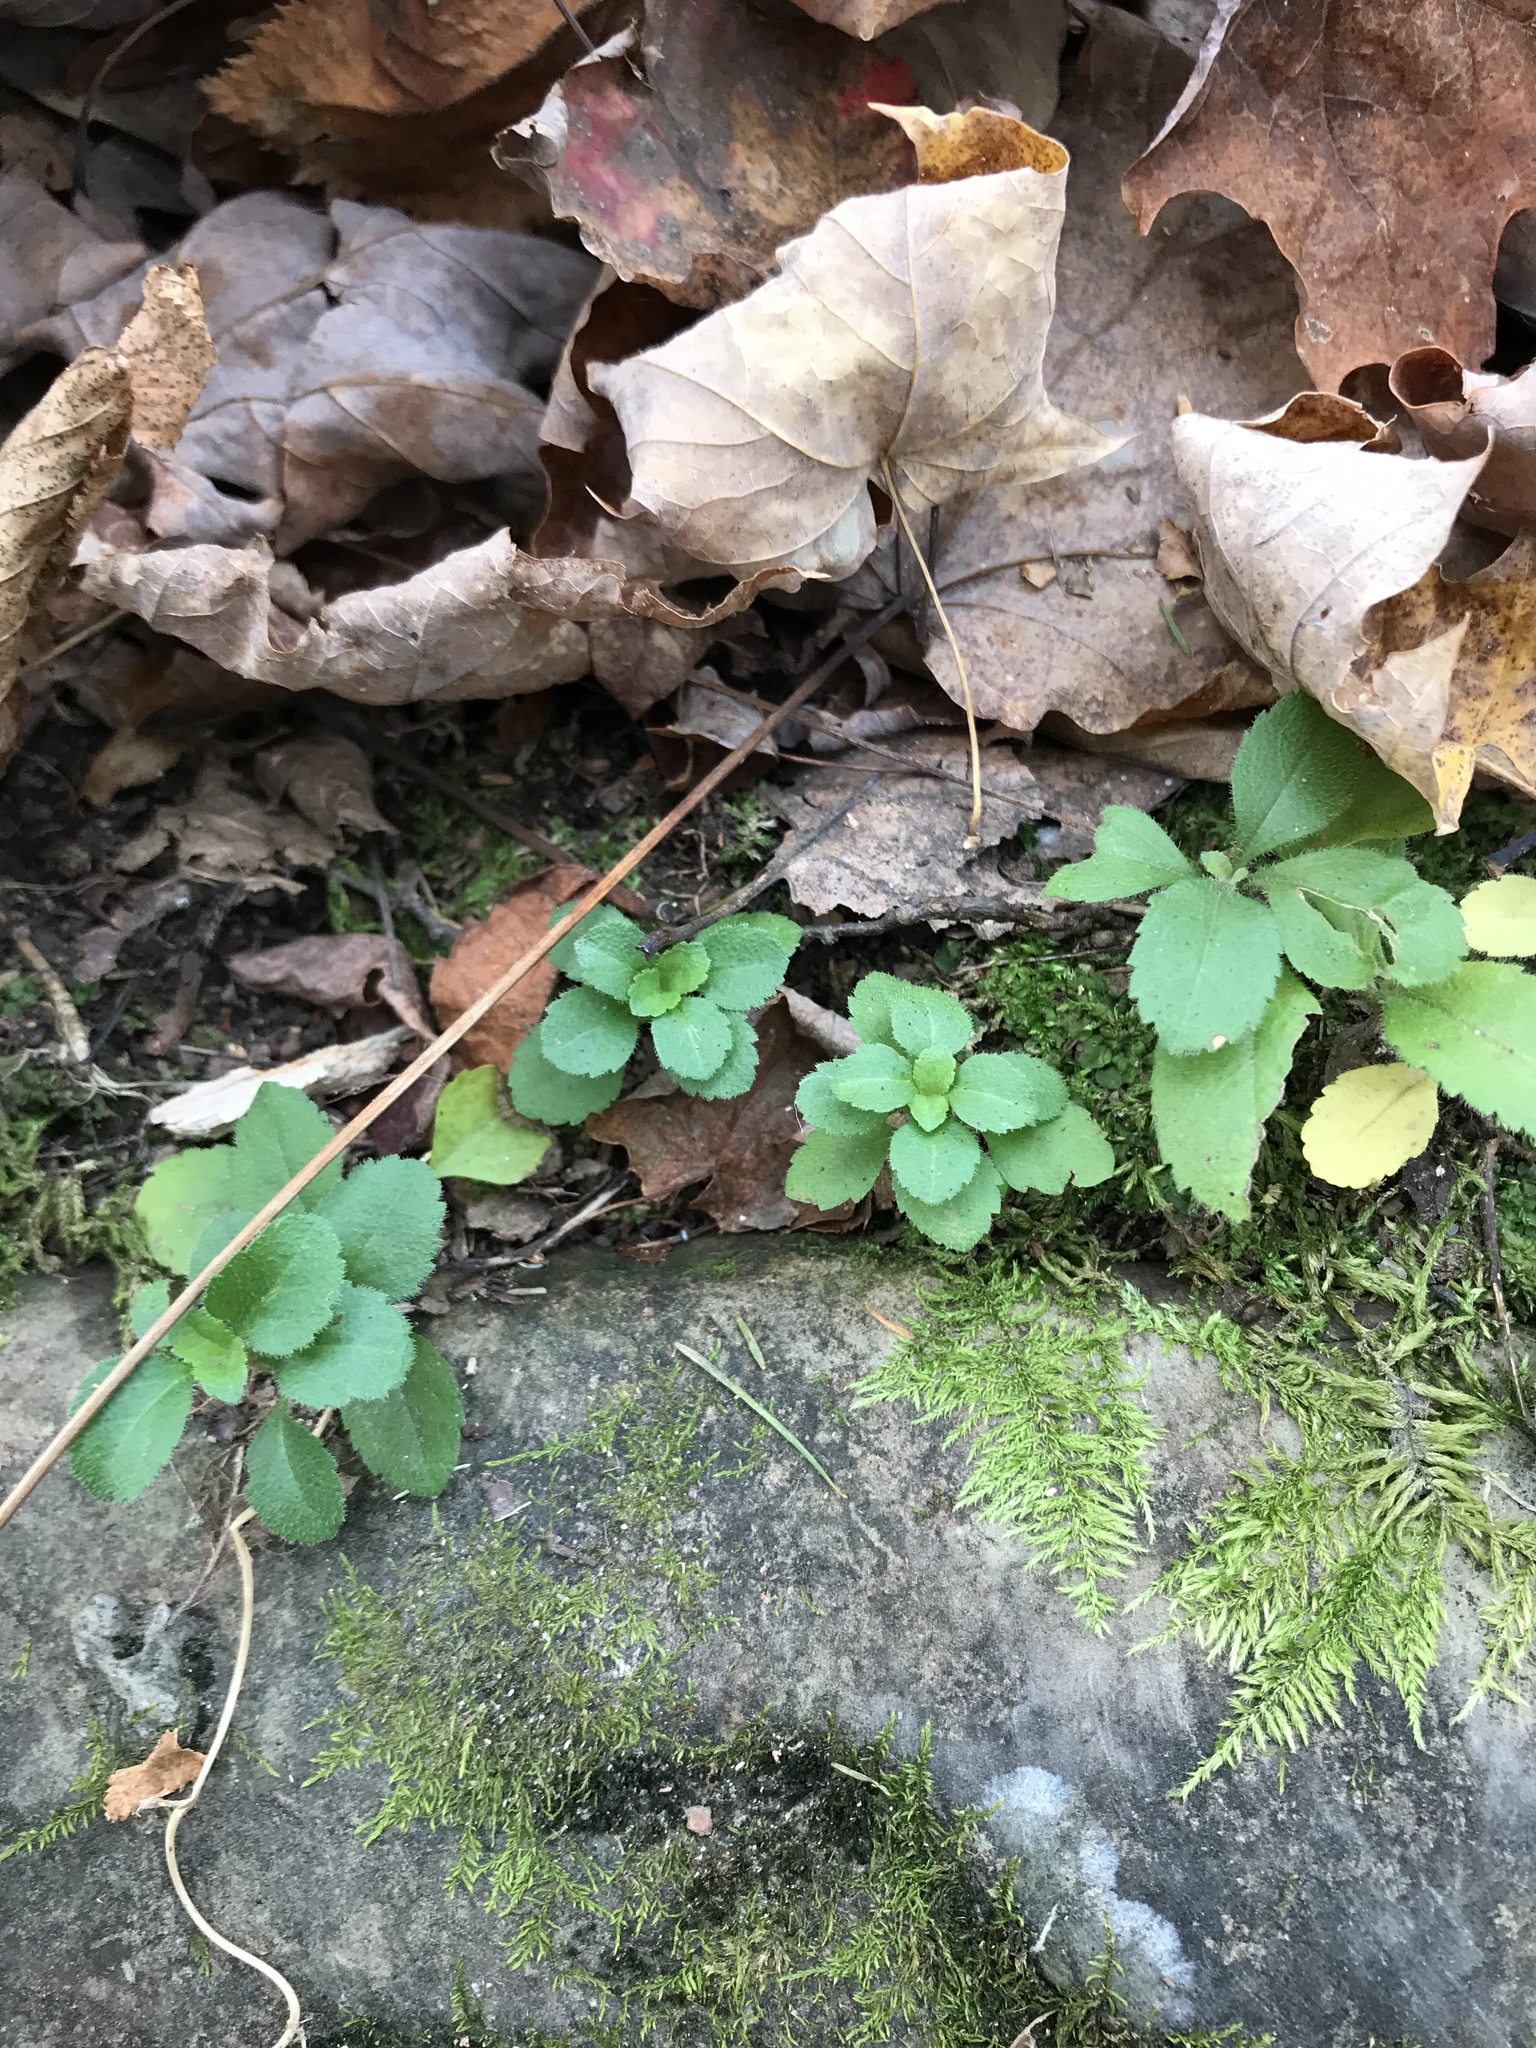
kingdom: Plantae
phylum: Tracheophyta
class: Magnoliopsida
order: Lamiales
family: Plantaginaceae
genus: Veronica
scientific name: Veronica officinalis
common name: Common speedwell
